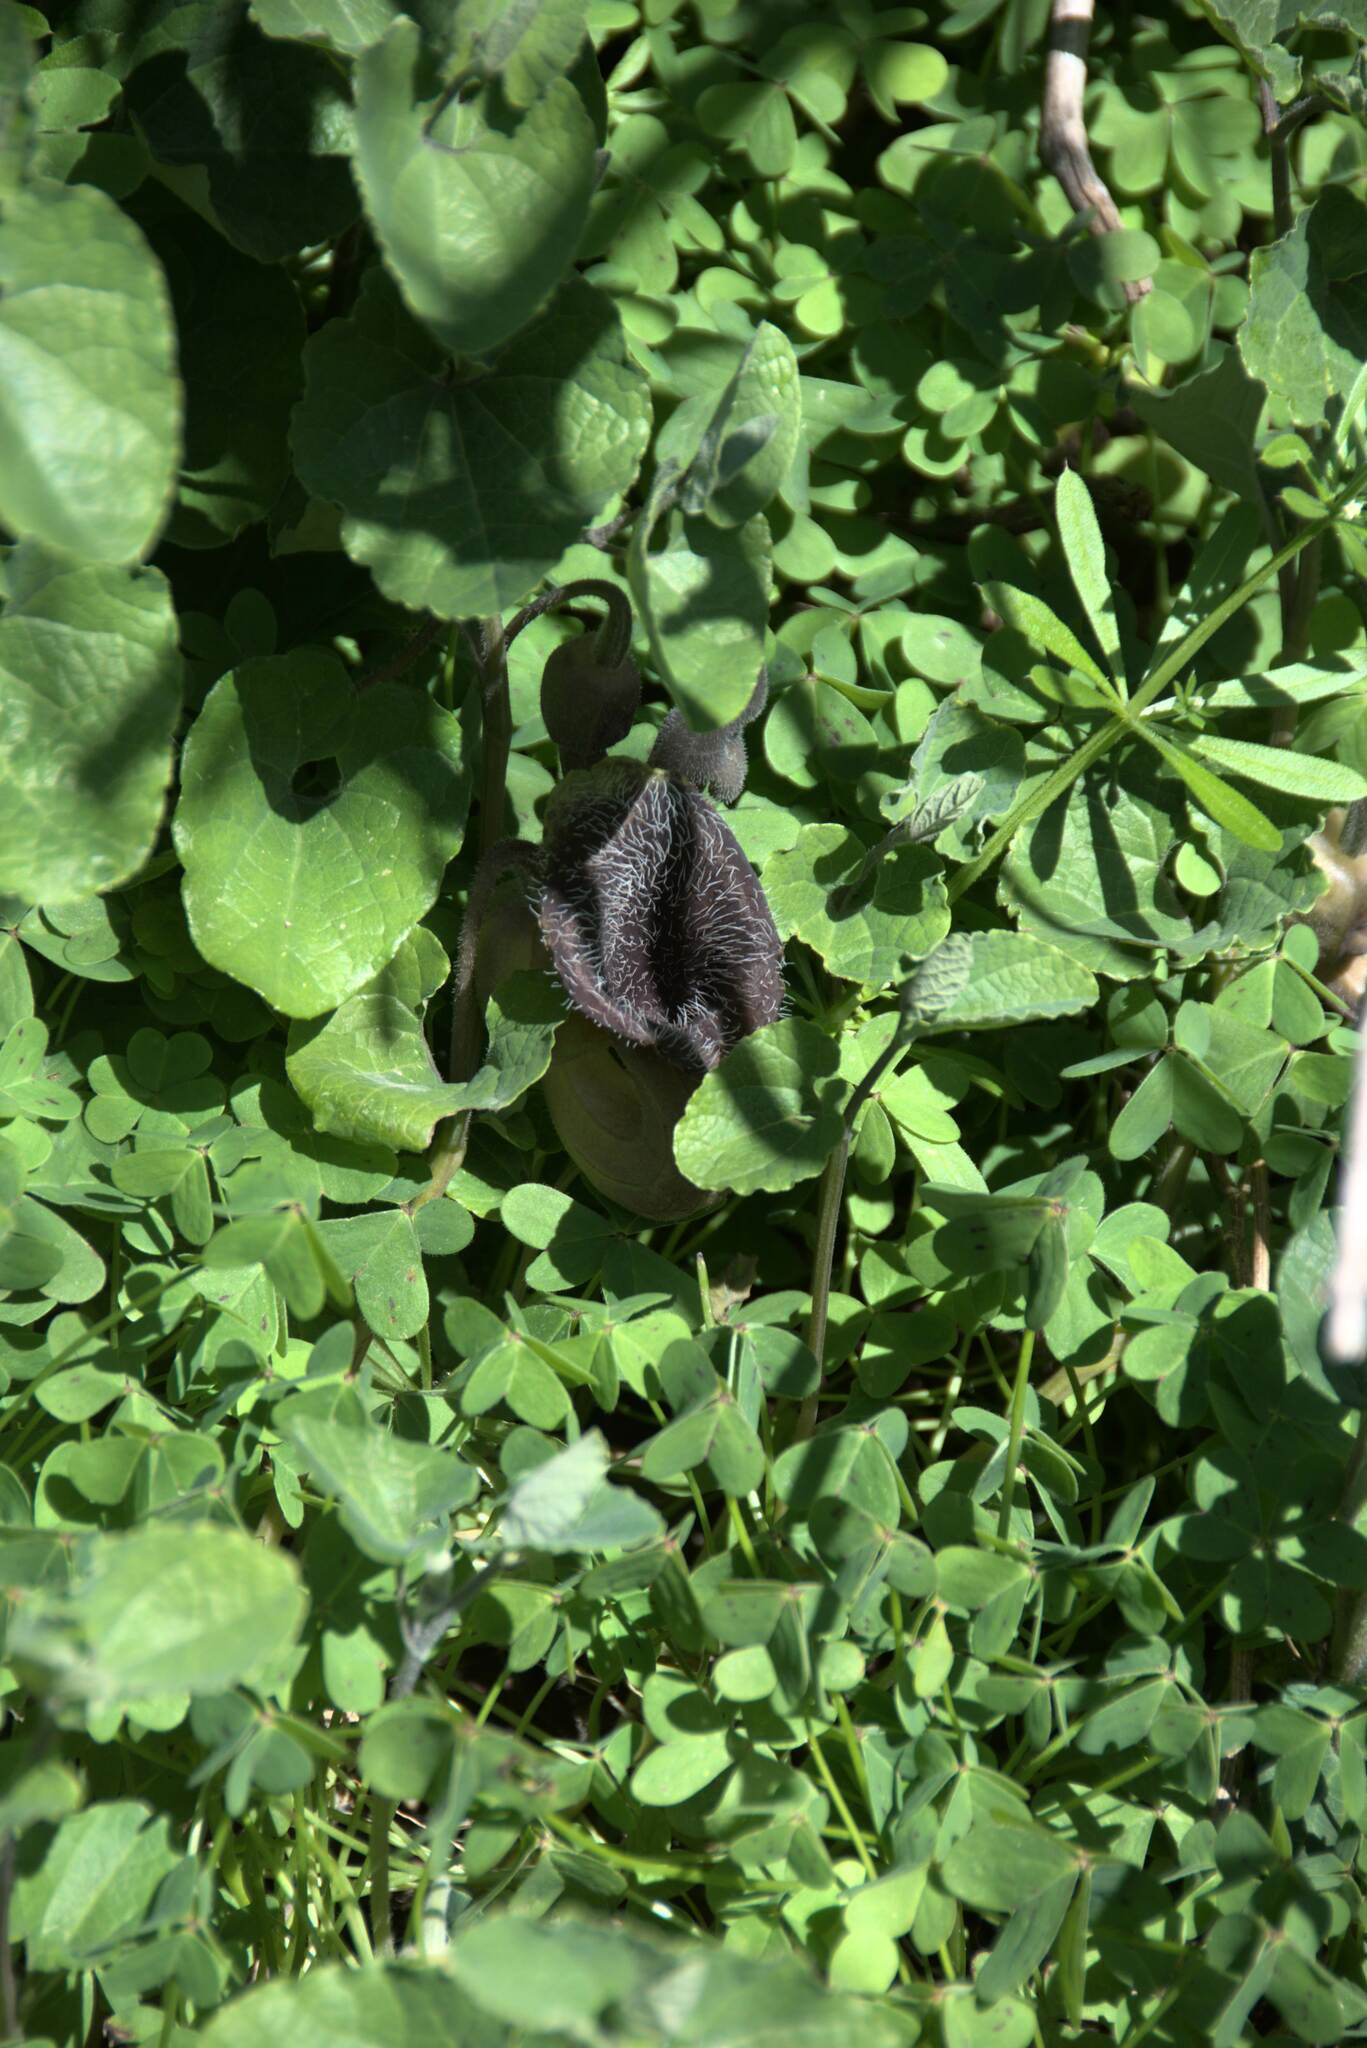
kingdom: Plantae
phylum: Tracheophyta
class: Magnoliopsida
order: Piperales
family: Aristolochiaceae
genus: Aristolochia
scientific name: Aristolochia cretica
